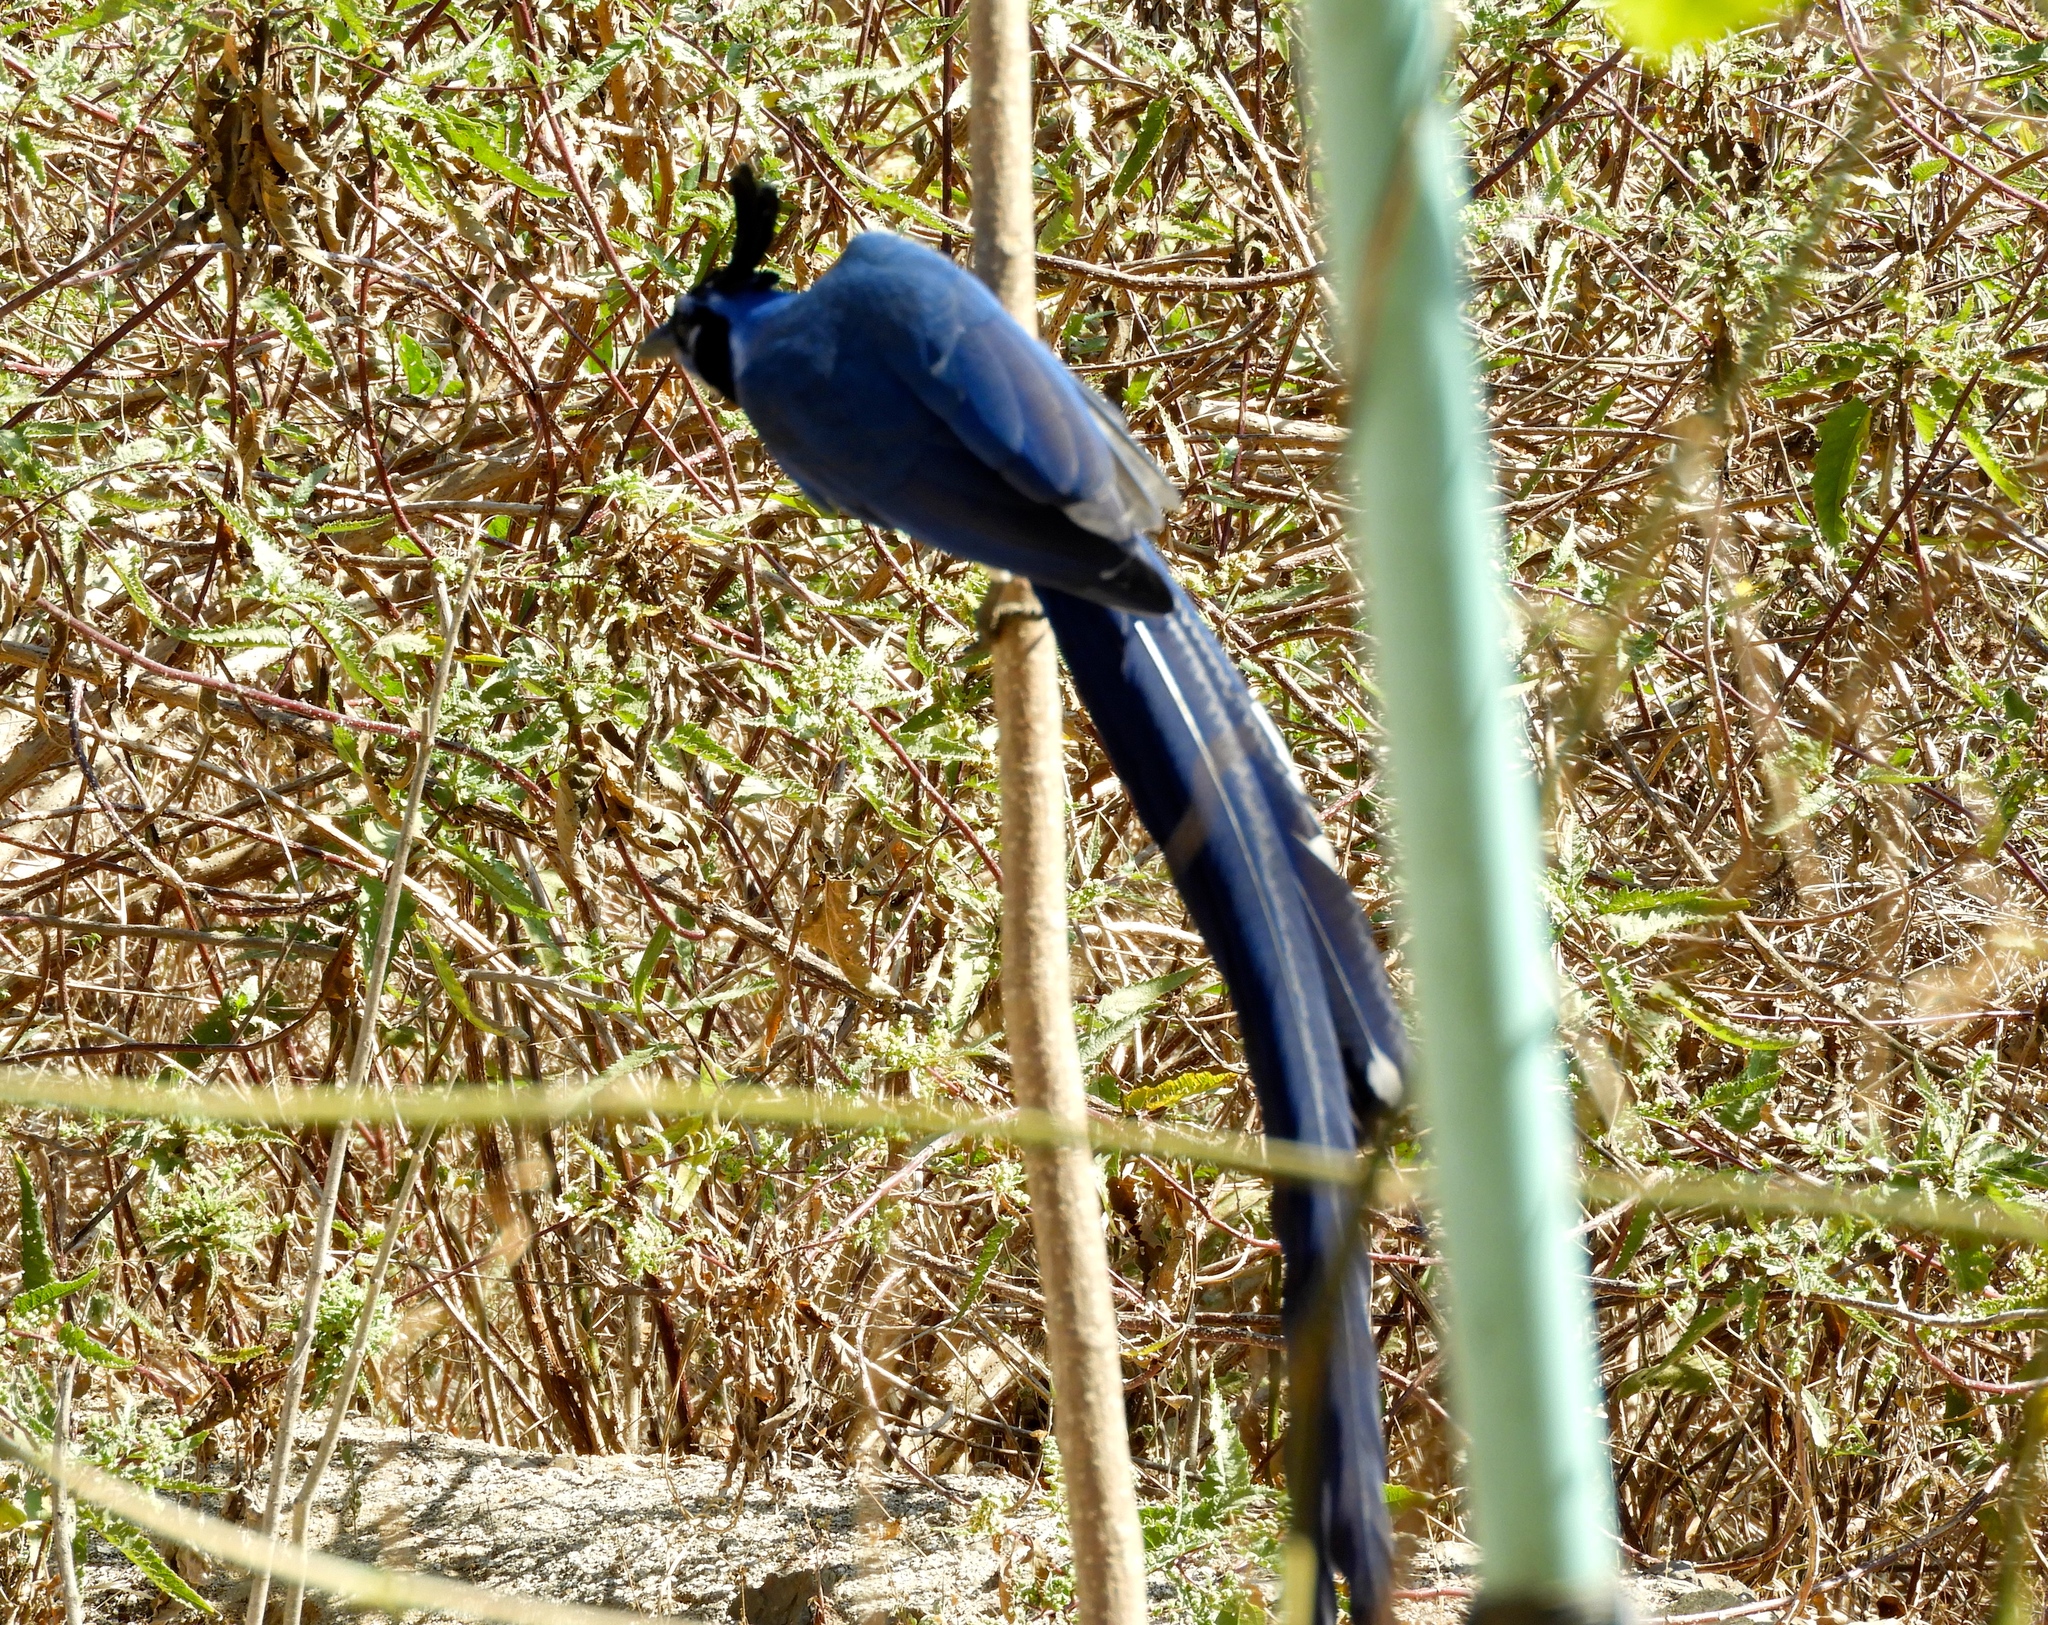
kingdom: Animalia
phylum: Chordata
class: Aves
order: Passeriformes
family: Corvidae
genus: Calocitta
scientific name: Calocitta colliei
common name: Black-throated magpie-jay
